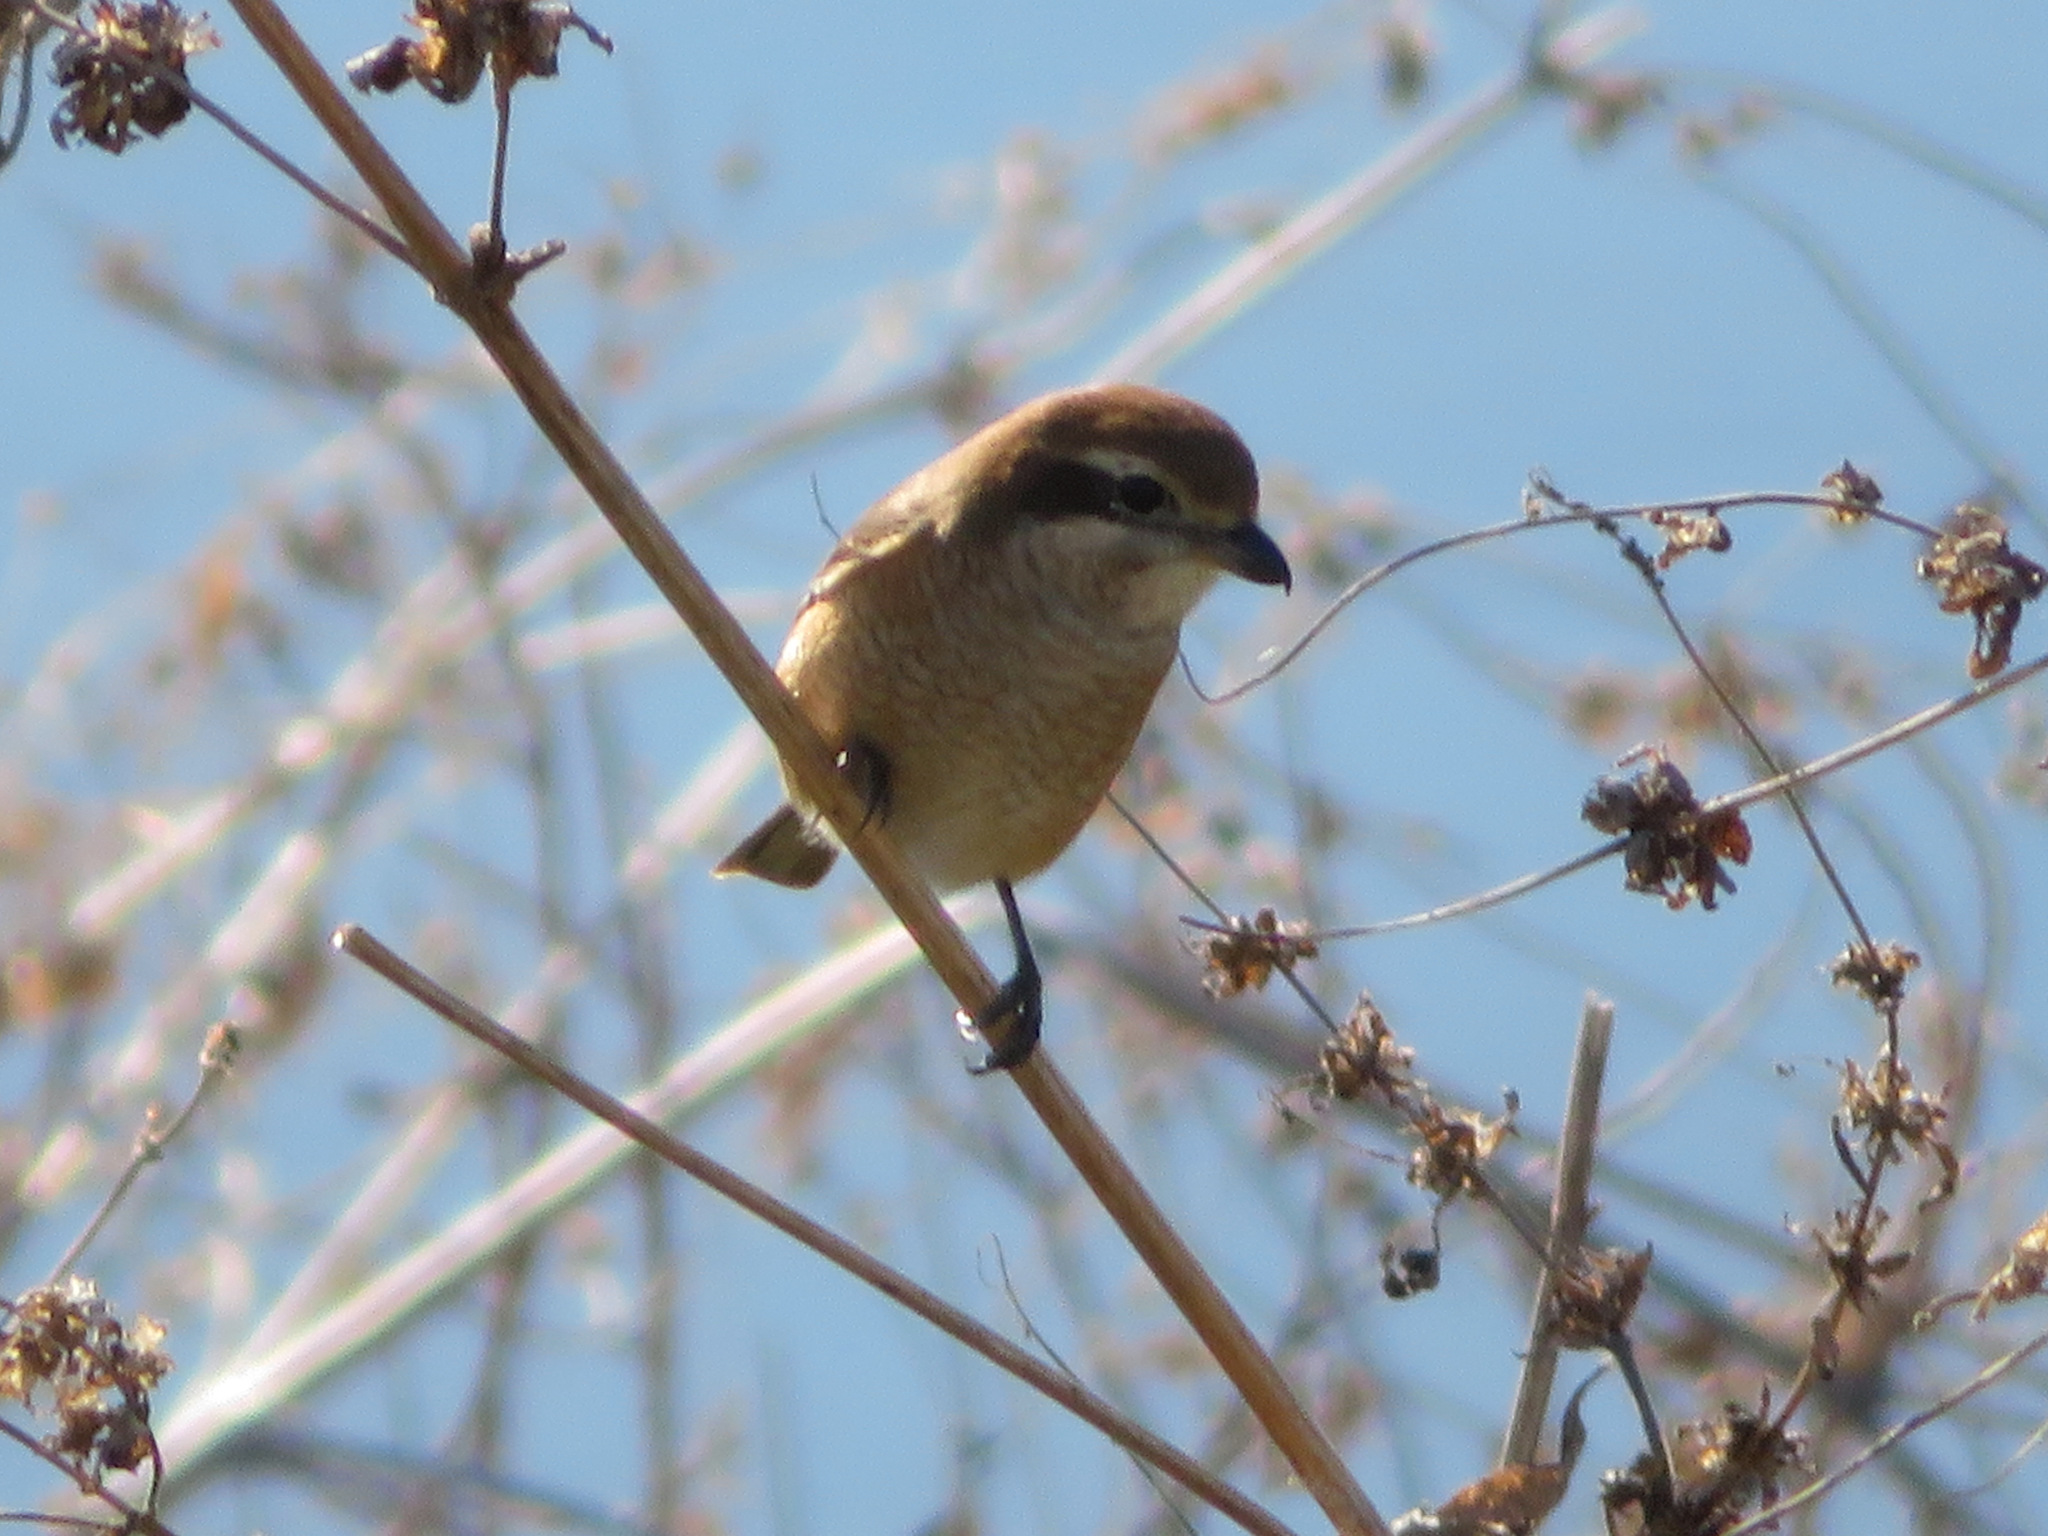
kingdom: Animalia
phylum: Chordata
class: Aves
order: Passeriformes
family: Laniidae
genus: Lanius
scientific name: Lanius bucephalus
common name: Bull-headed shrike
